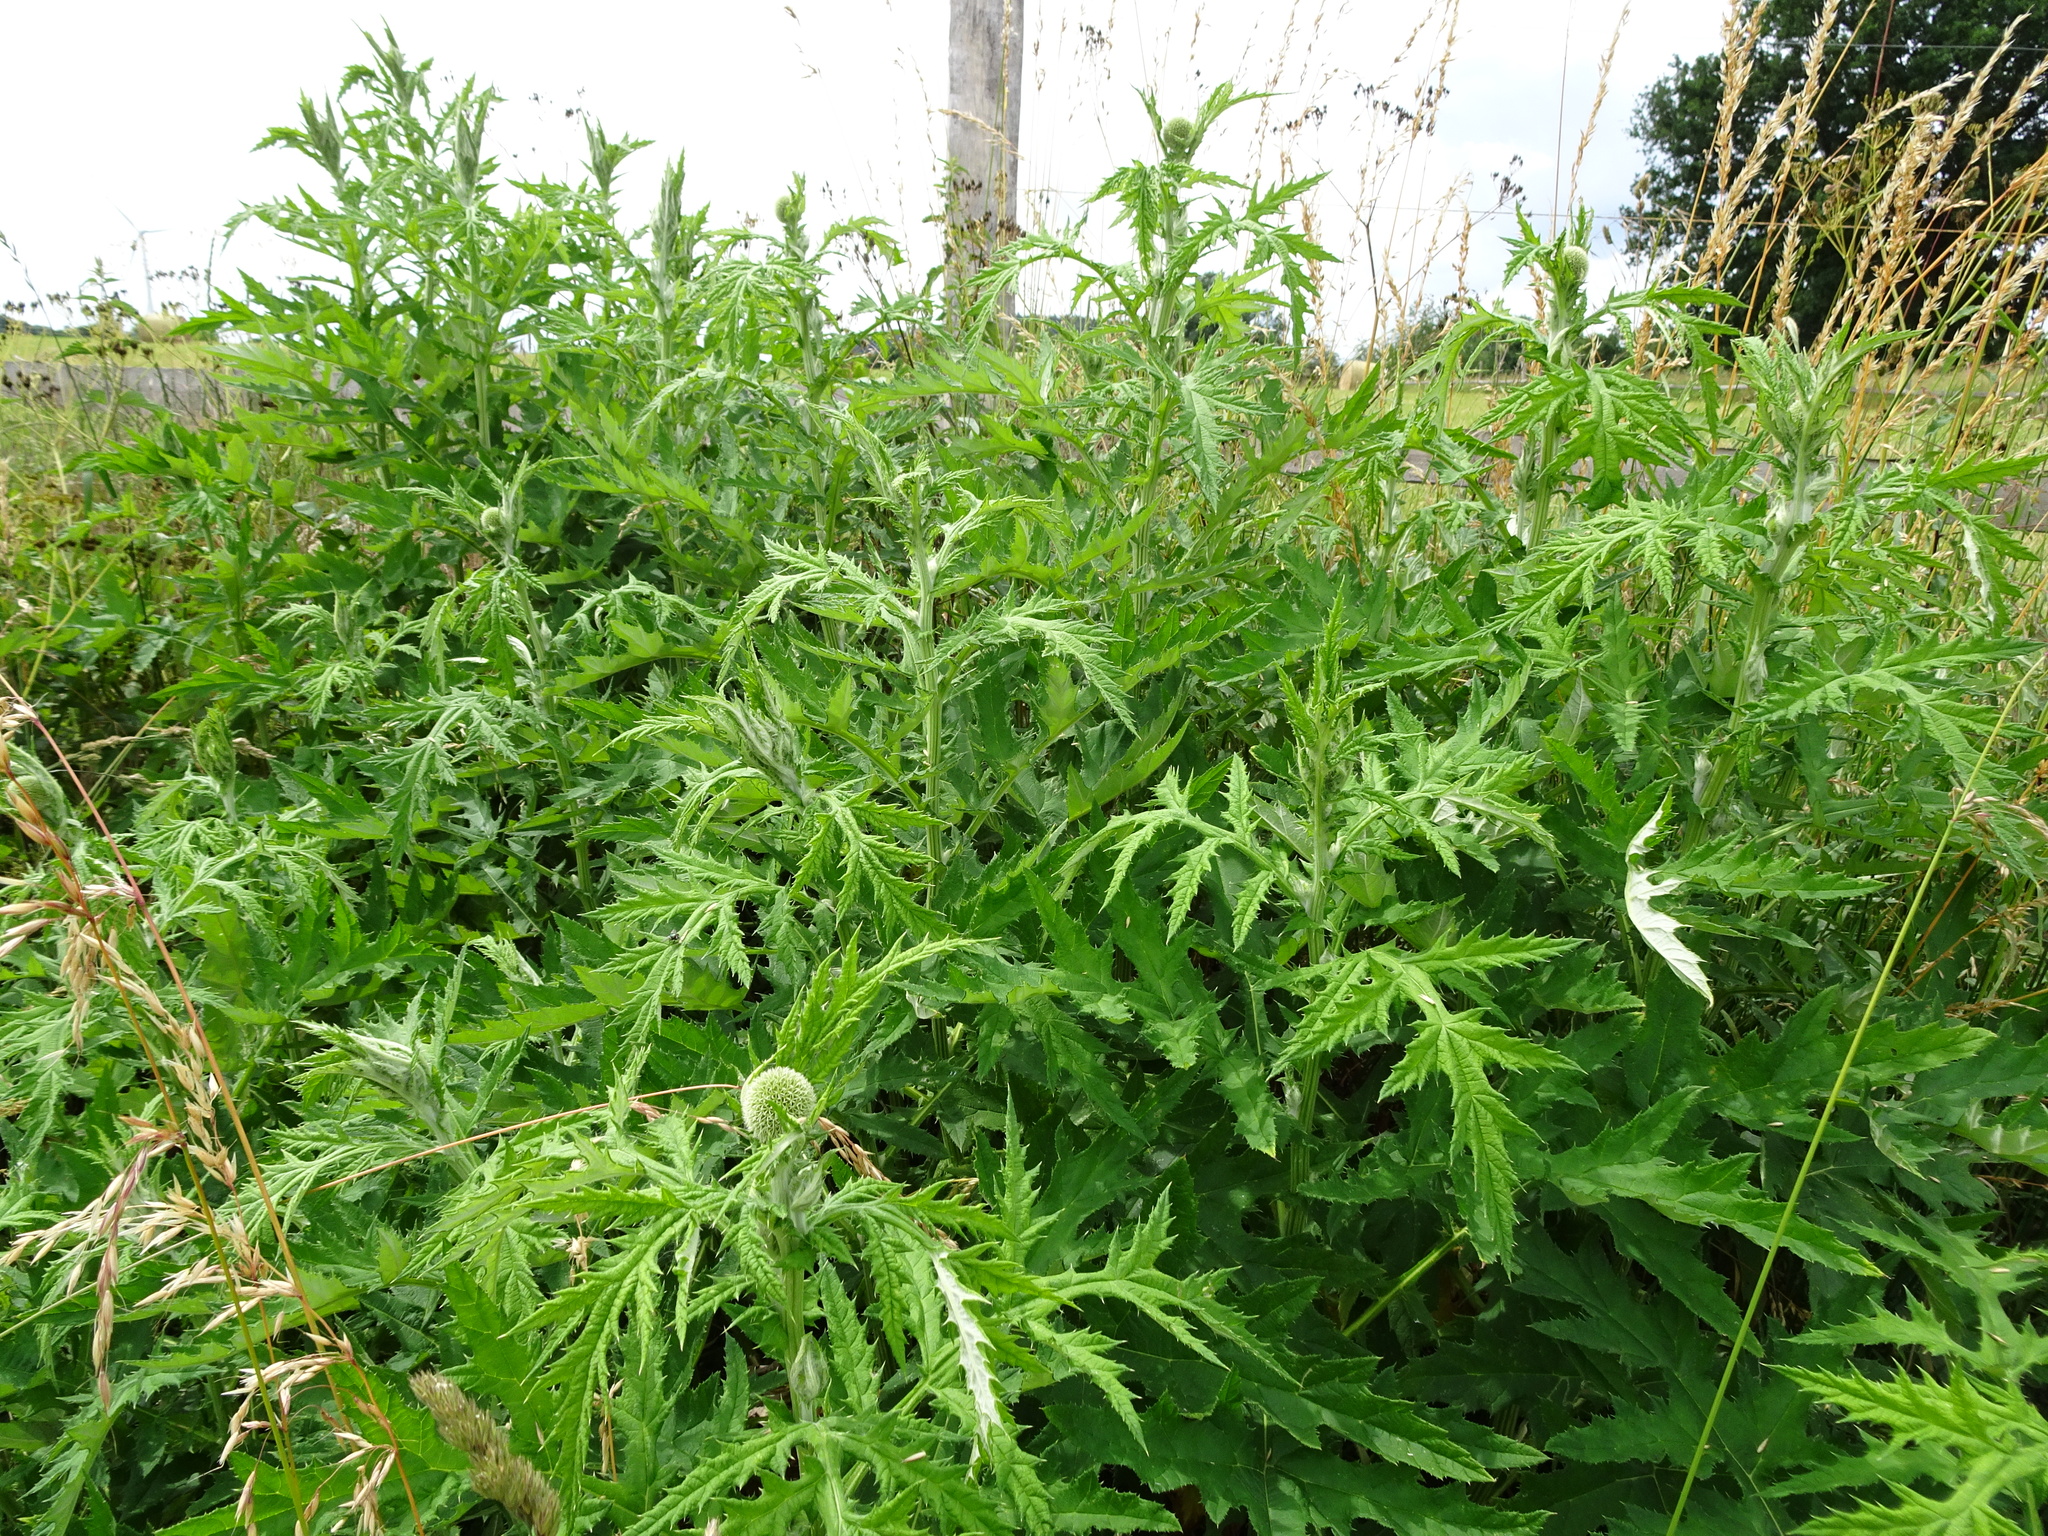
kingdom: Plantae
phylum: Tracheophyta
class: Magnoliopsida
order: Asterales
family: Asteraceae
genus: Echinops
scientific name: Echinops exaltatus
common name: Globe-thistle
